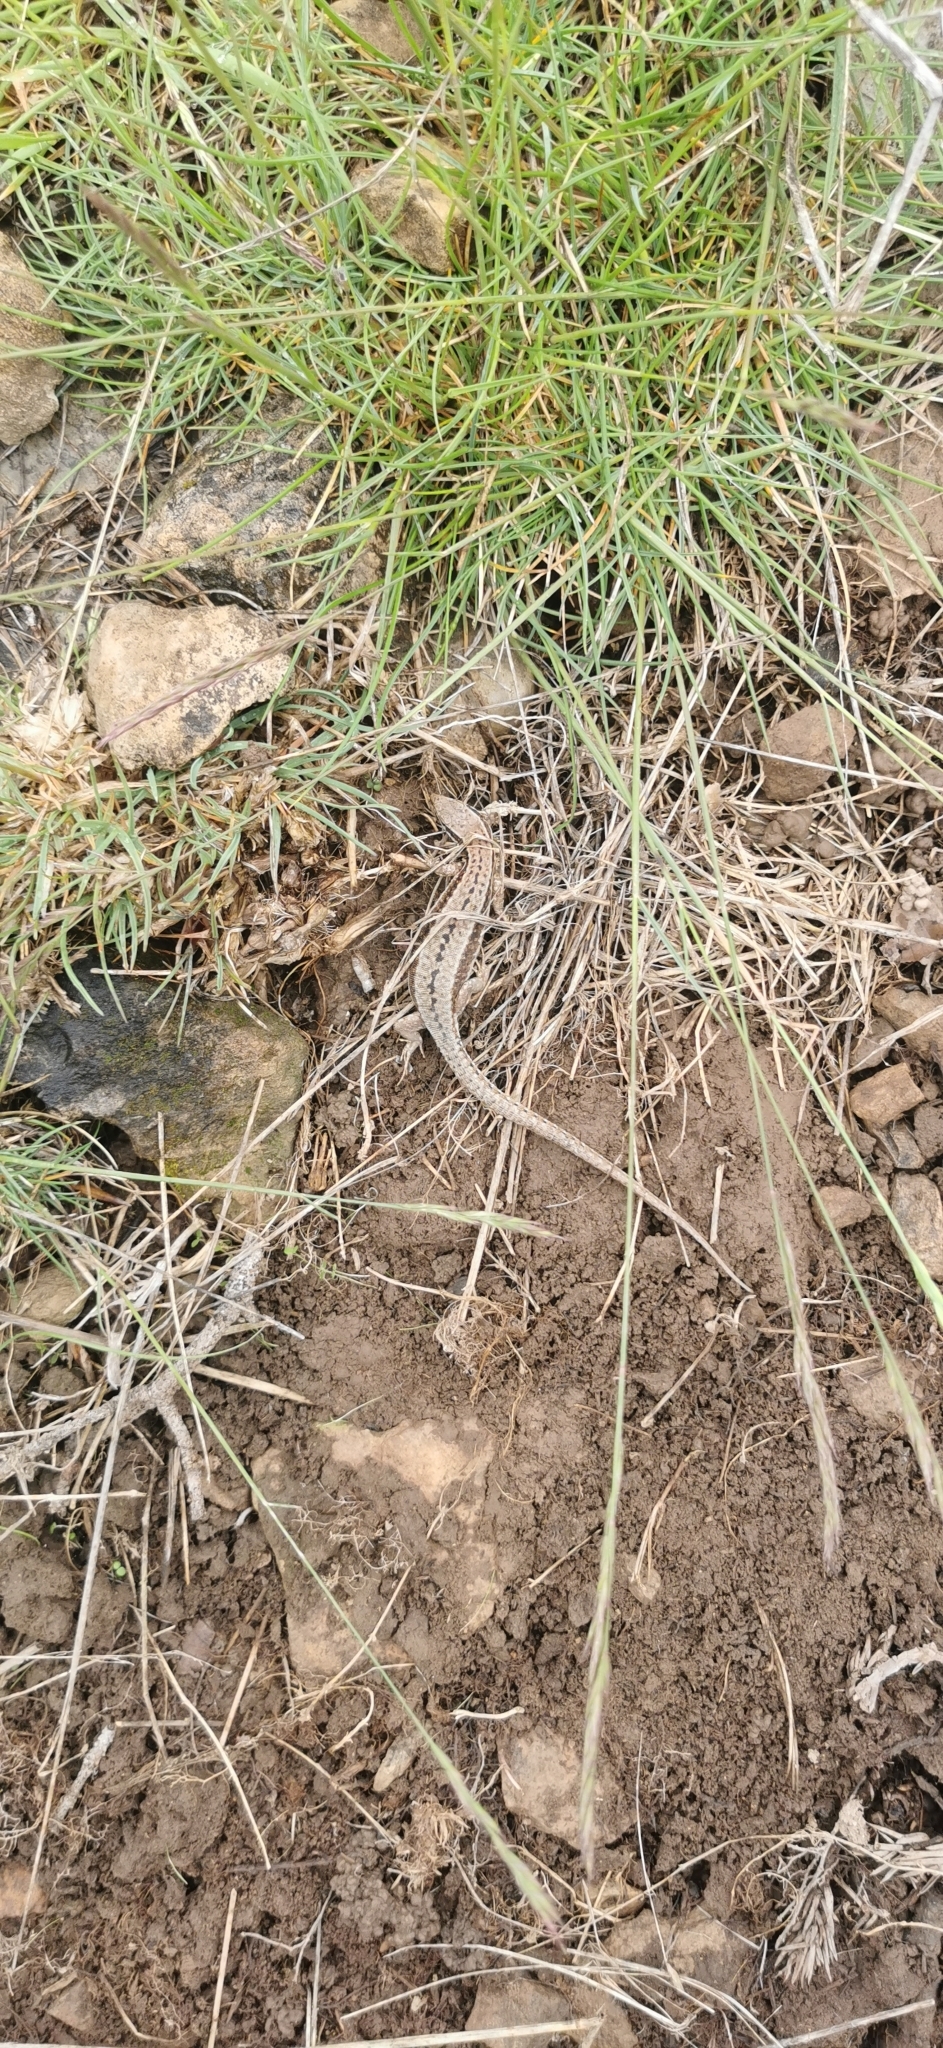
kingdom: Animalia
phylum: Chordata
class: Squamata
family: Lacertidae
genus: Podarcis
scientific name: Podarcis muralis
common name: Common wall lizard
